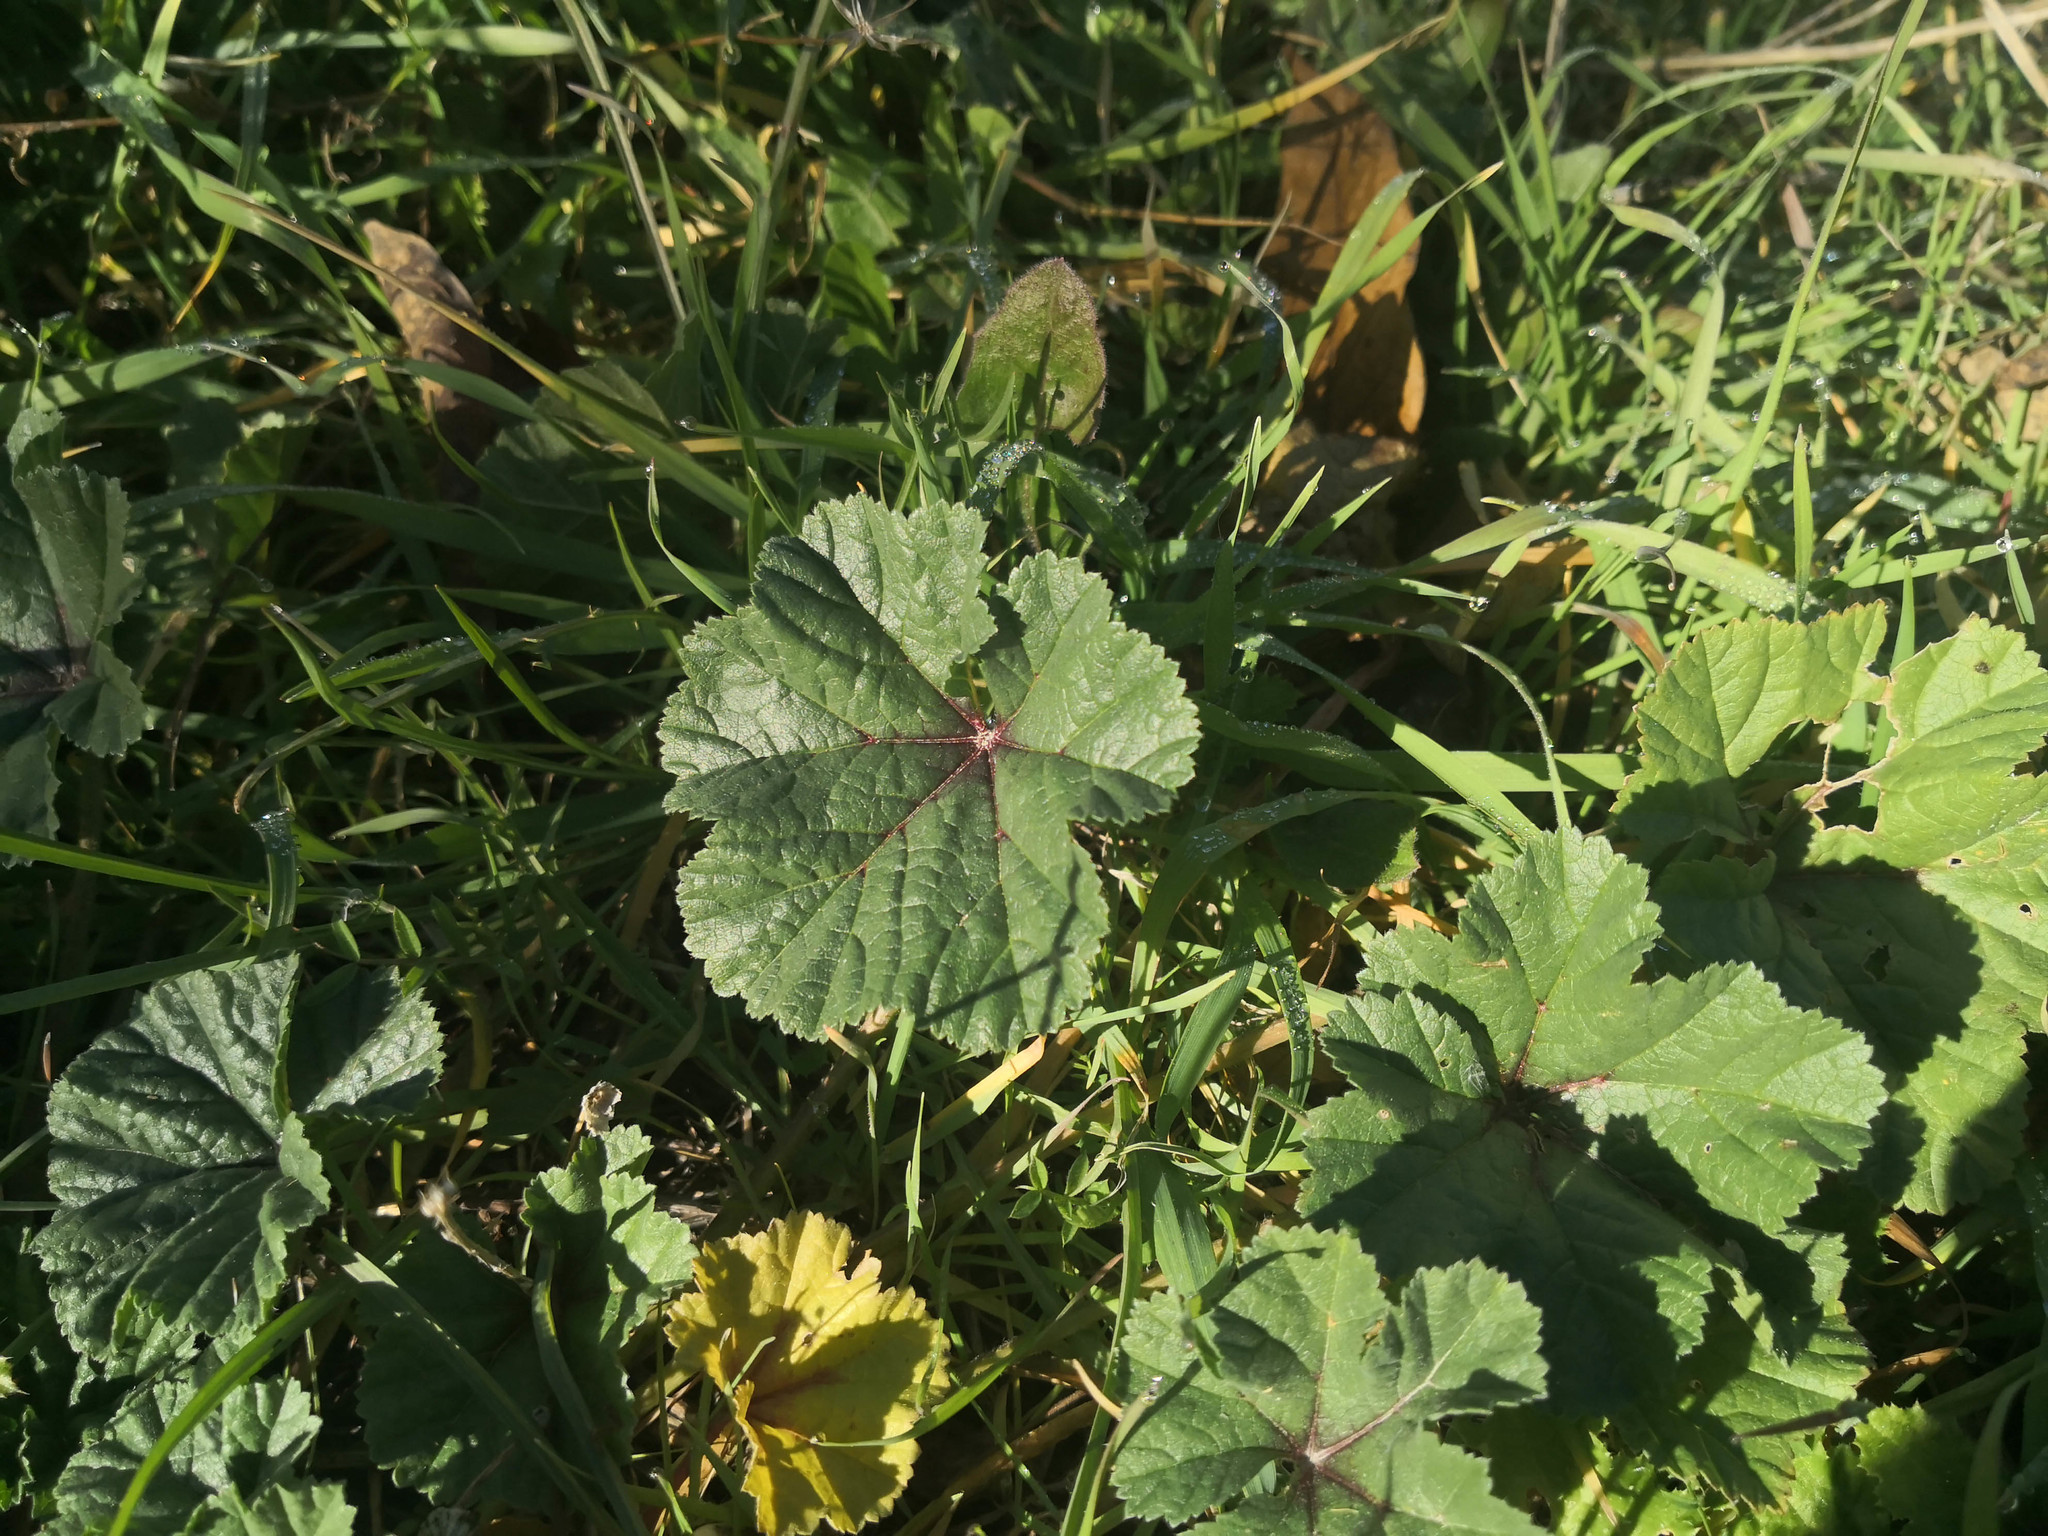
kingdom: Plantae
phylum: Tracheophyta
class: Magnoliopsida
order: Malvales
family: Malvaceae
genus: Malva
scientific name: Malva sylvestris
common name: Common mallow
